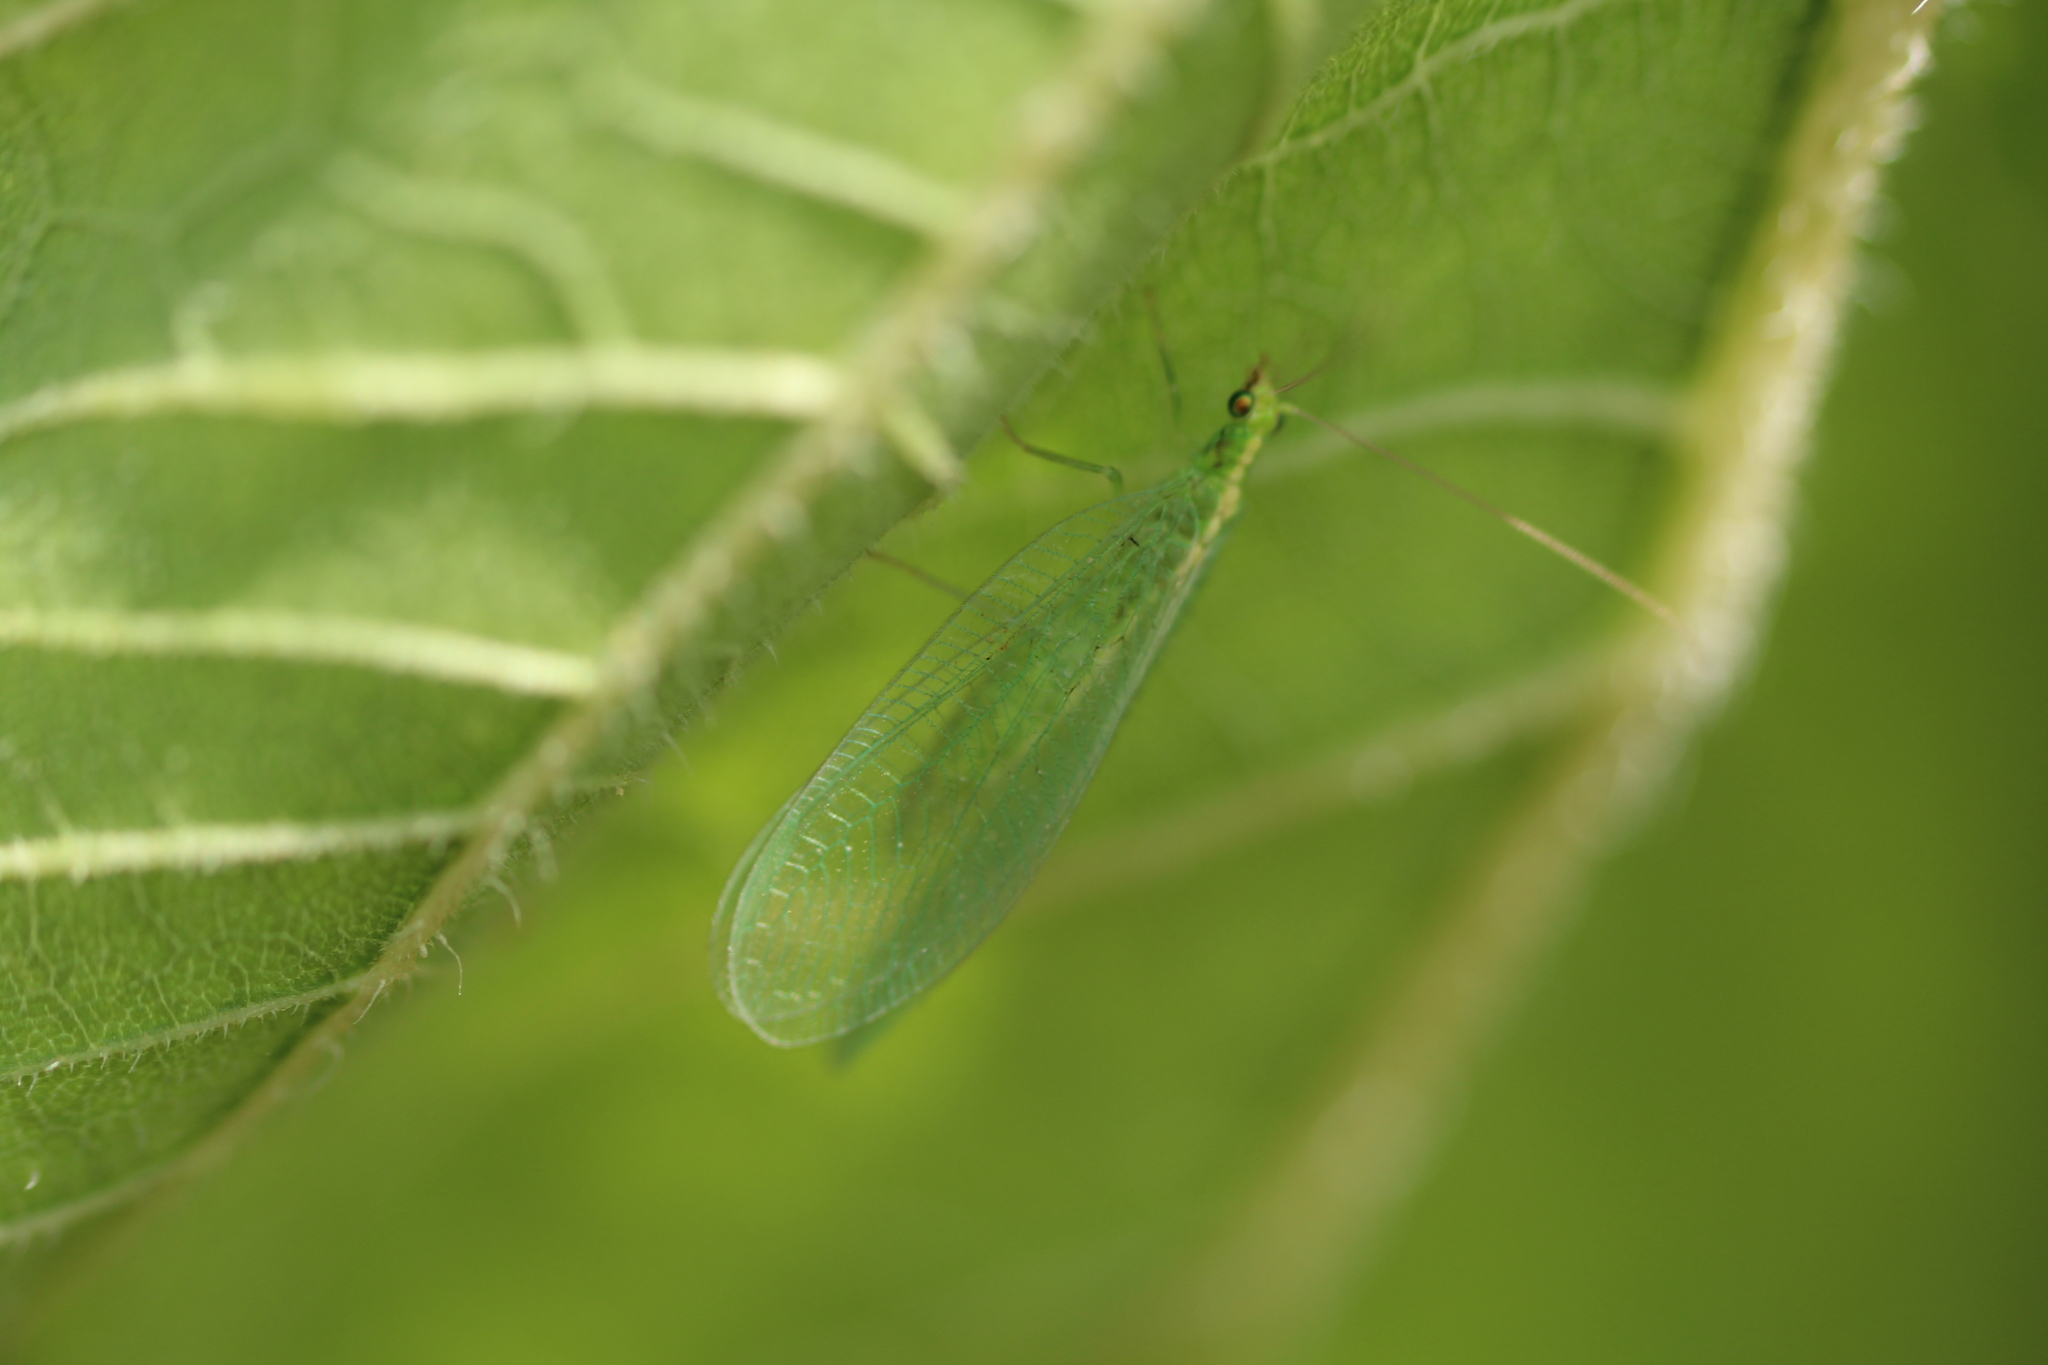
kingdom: Animalia
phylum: Arthropoda
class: Insecta
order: Neuroptera
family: Chrysopidae
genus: Chrysoperla
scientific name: Chrysoperla
